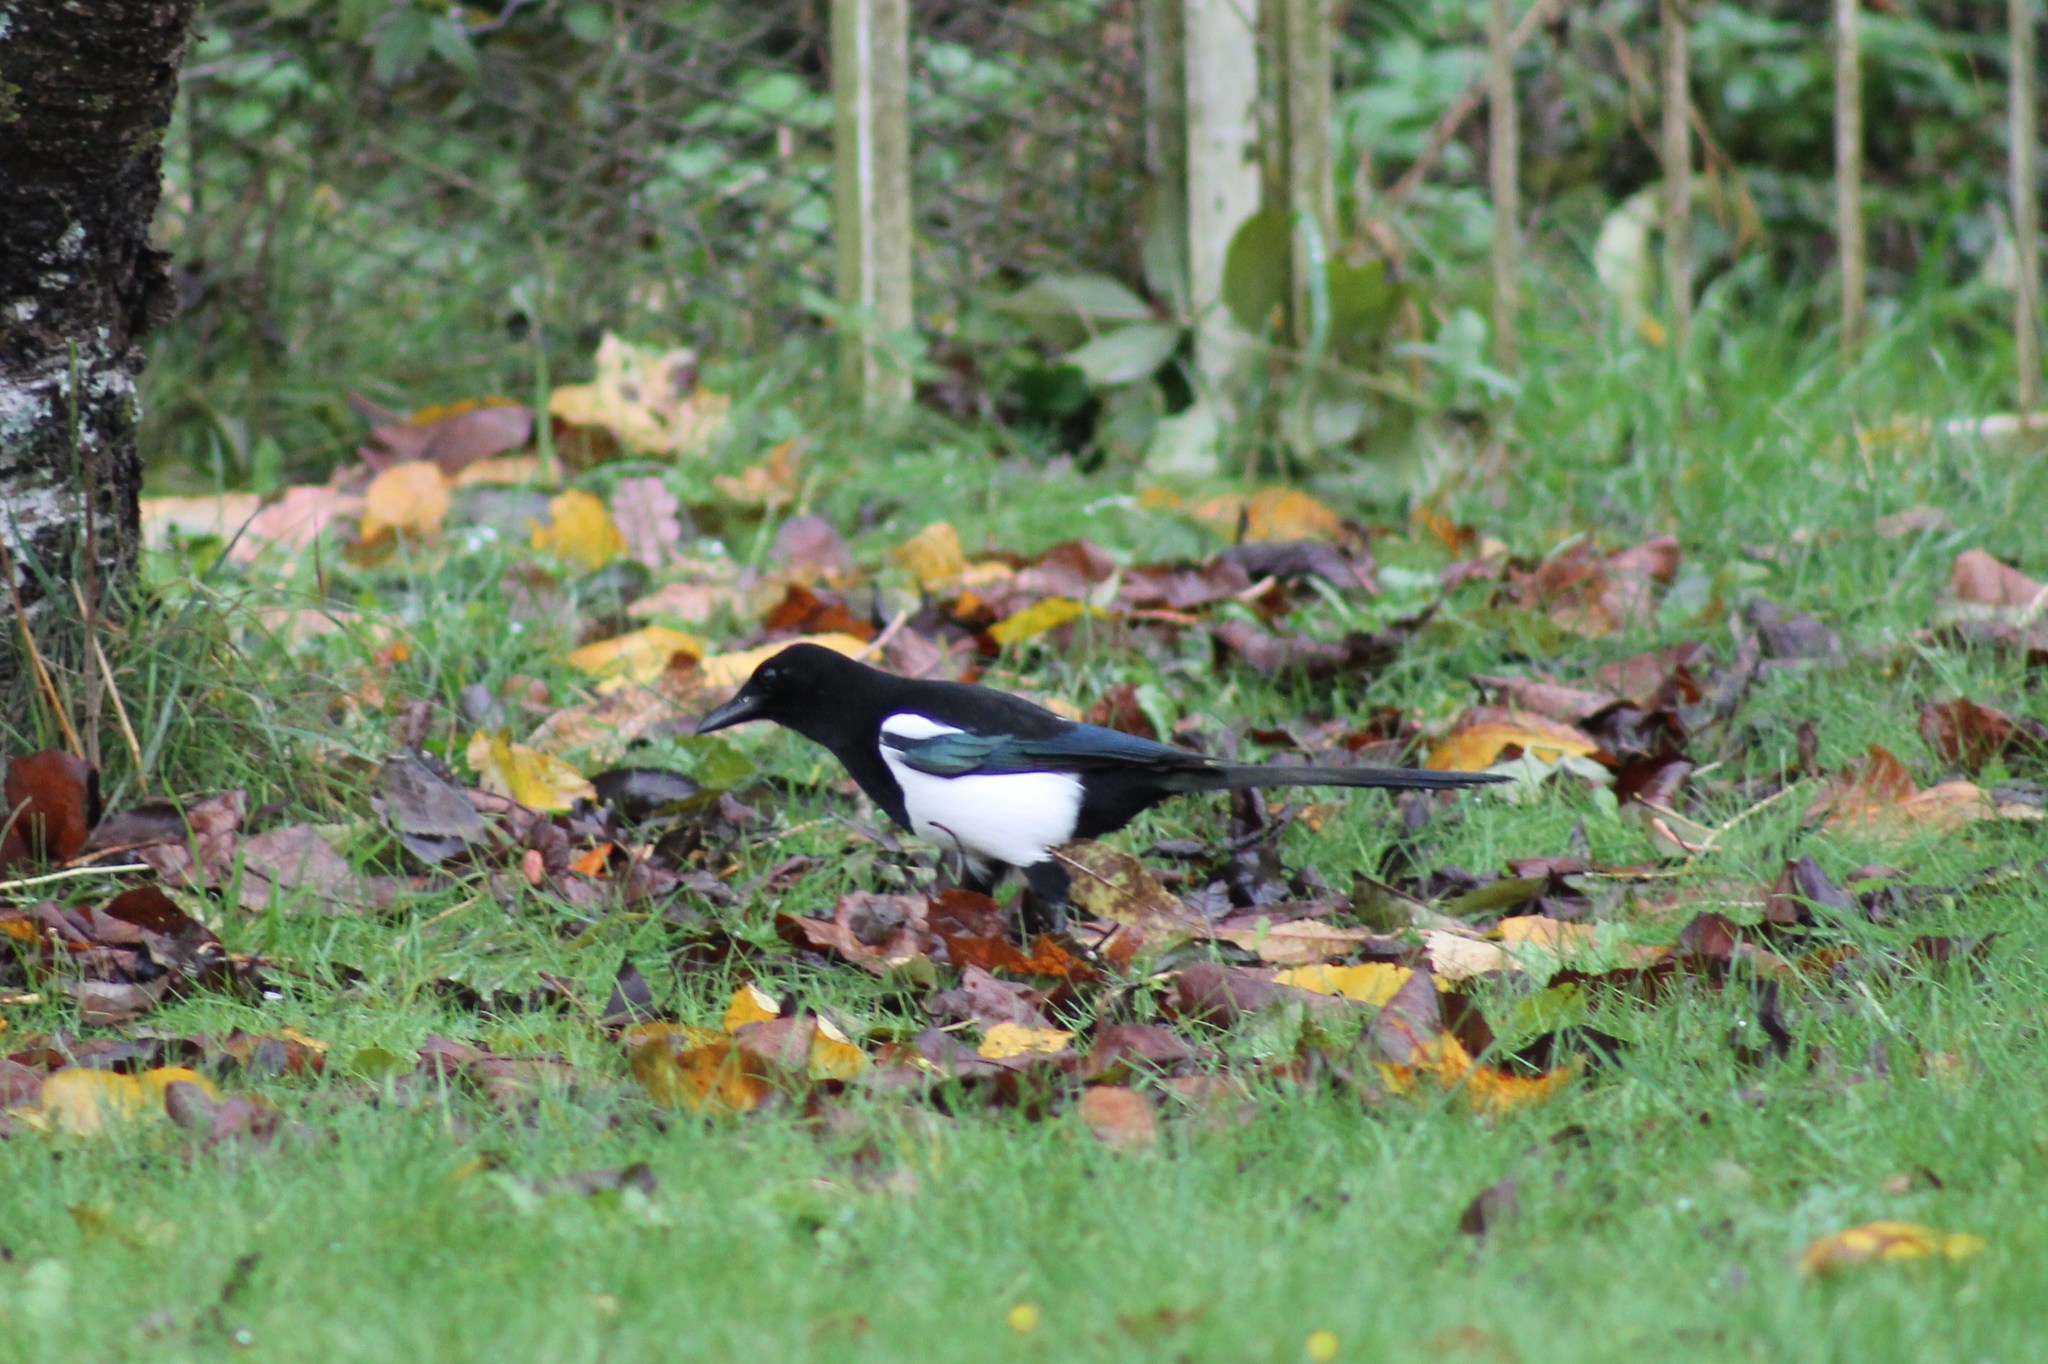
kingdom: Animalia
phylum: Chordata
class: Aves
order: Passeriformes
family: Corvidae
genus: Pica
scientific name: Pica pica
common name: Eurasian magpie
